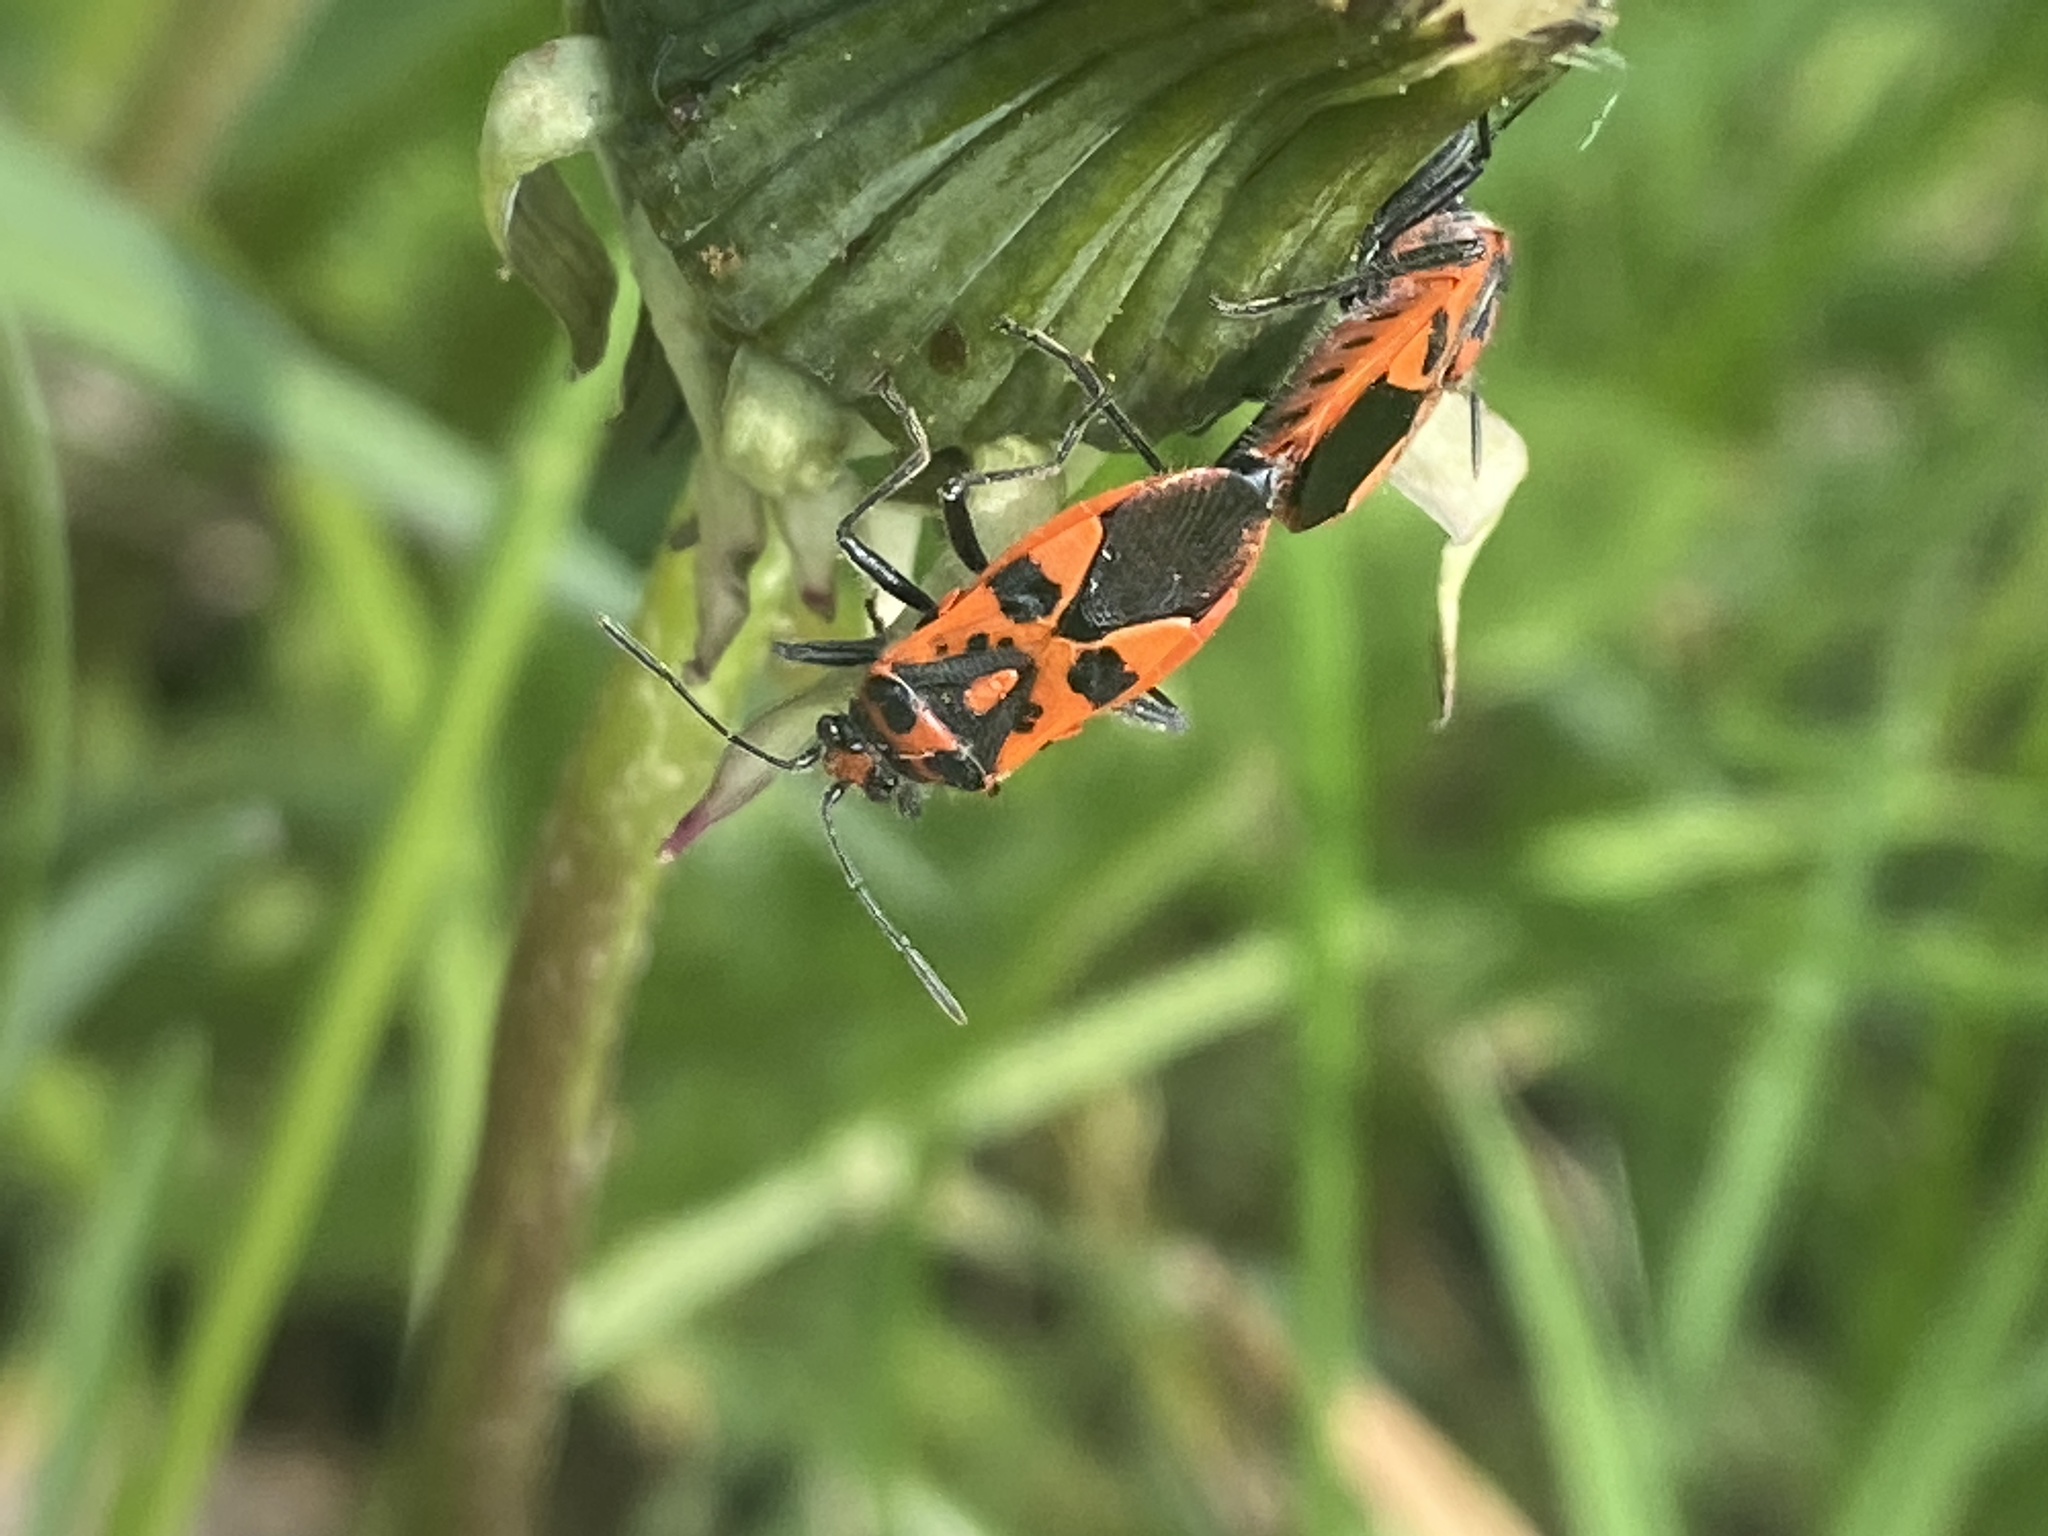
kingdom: Animalia
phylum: Arthropoda
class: Insecta
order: Hemiptera
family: Rhopalidae
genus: Corizus
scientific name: Corizus hyoscyami
